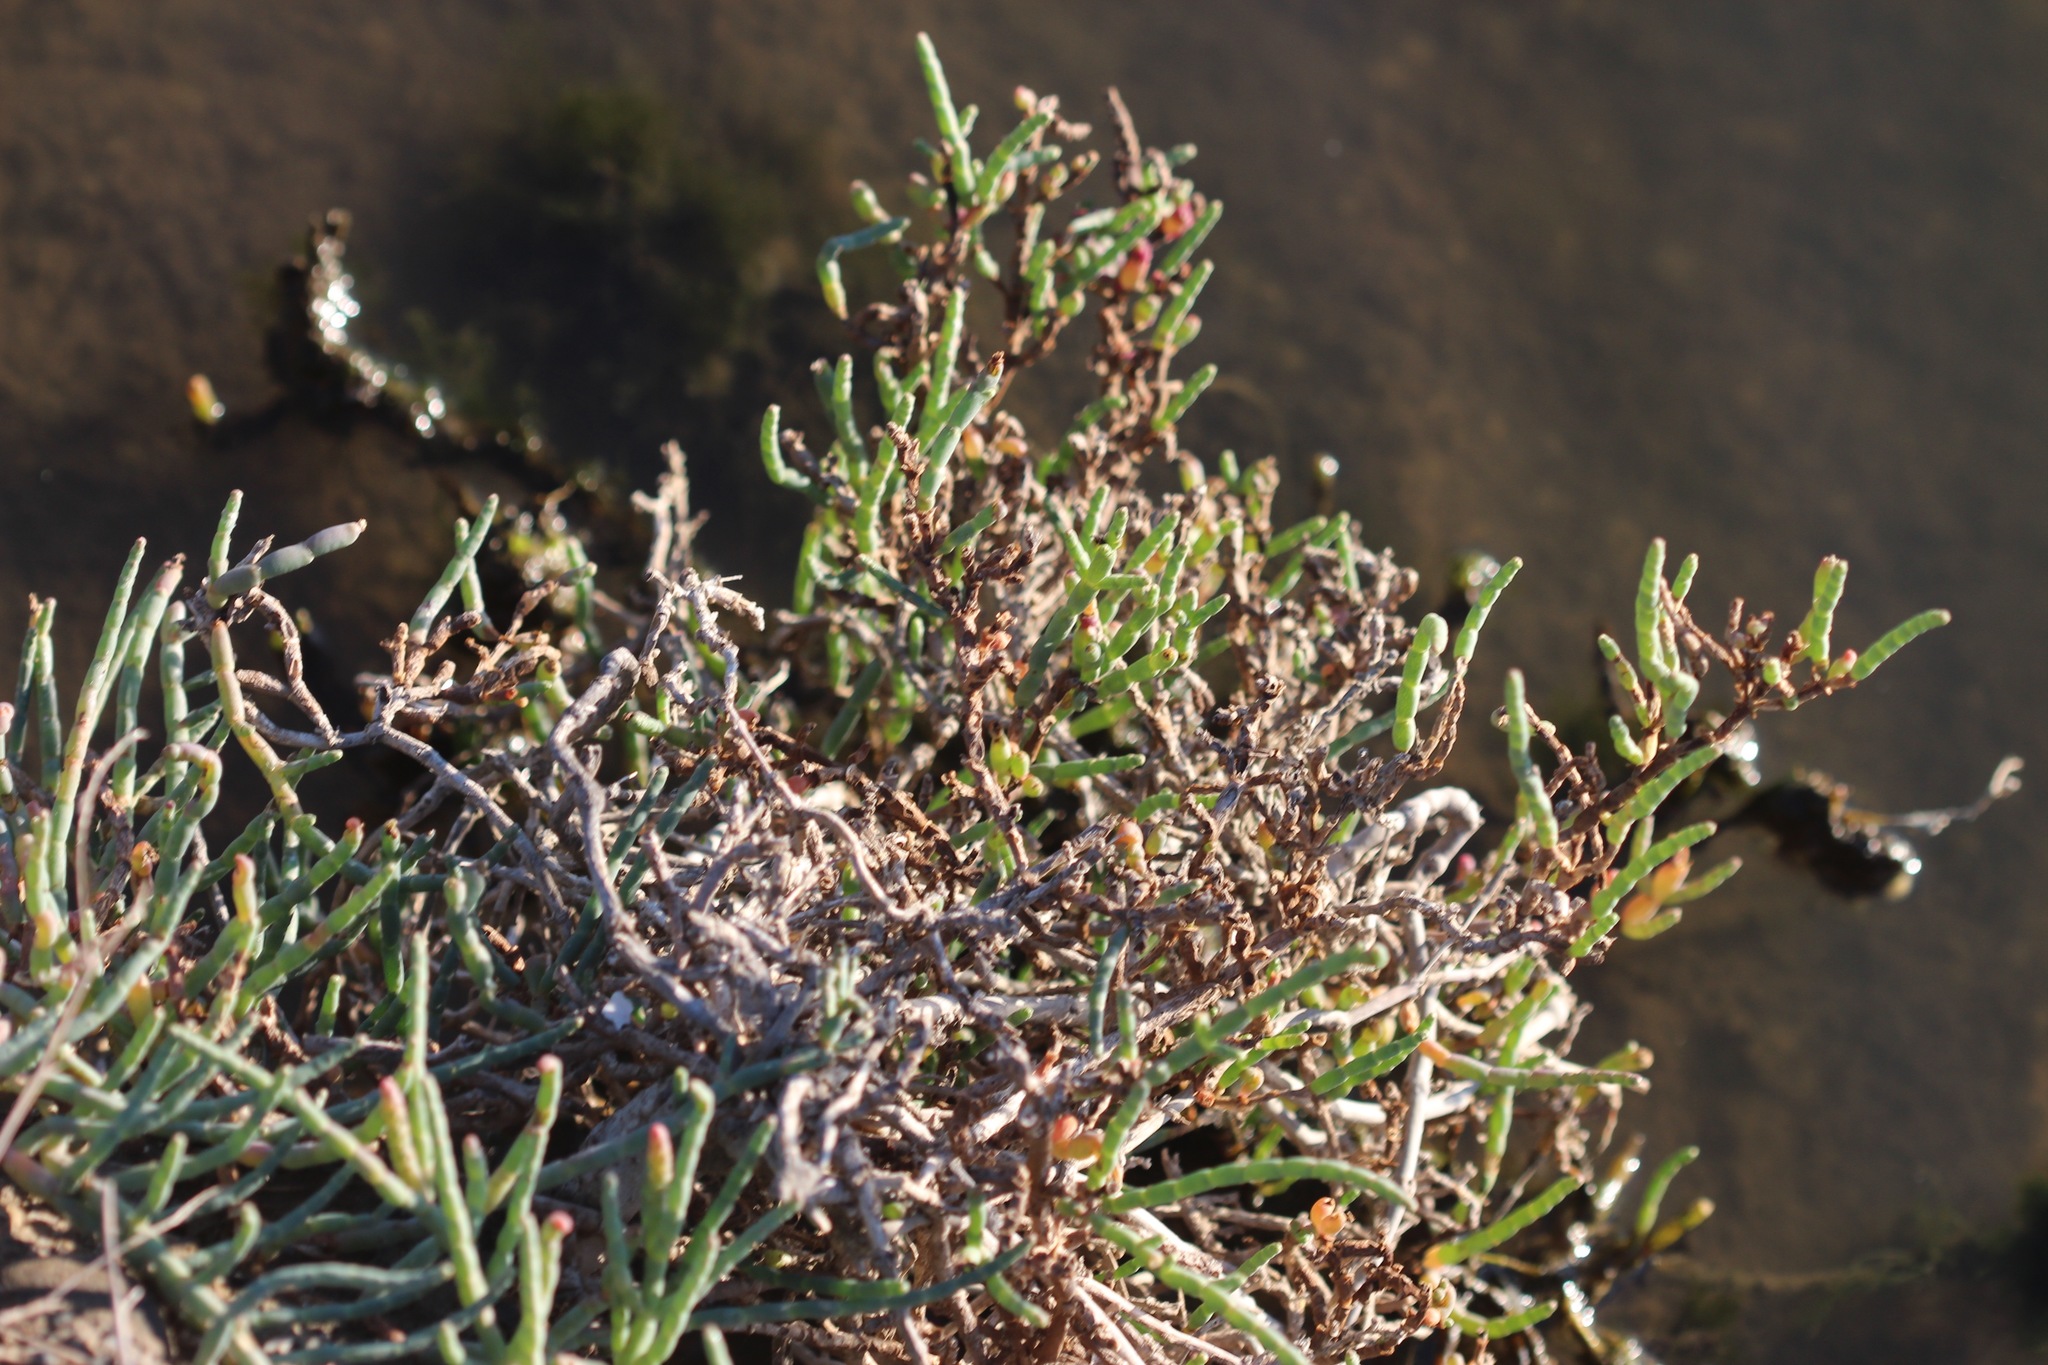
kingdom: Plantae
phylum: Tracheophyta
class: Magnoliopsida
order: Caryophyllales
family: Amaranthaceae
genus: Salicornia
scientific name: Salicornia pacifica
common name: Pacific glasswort
